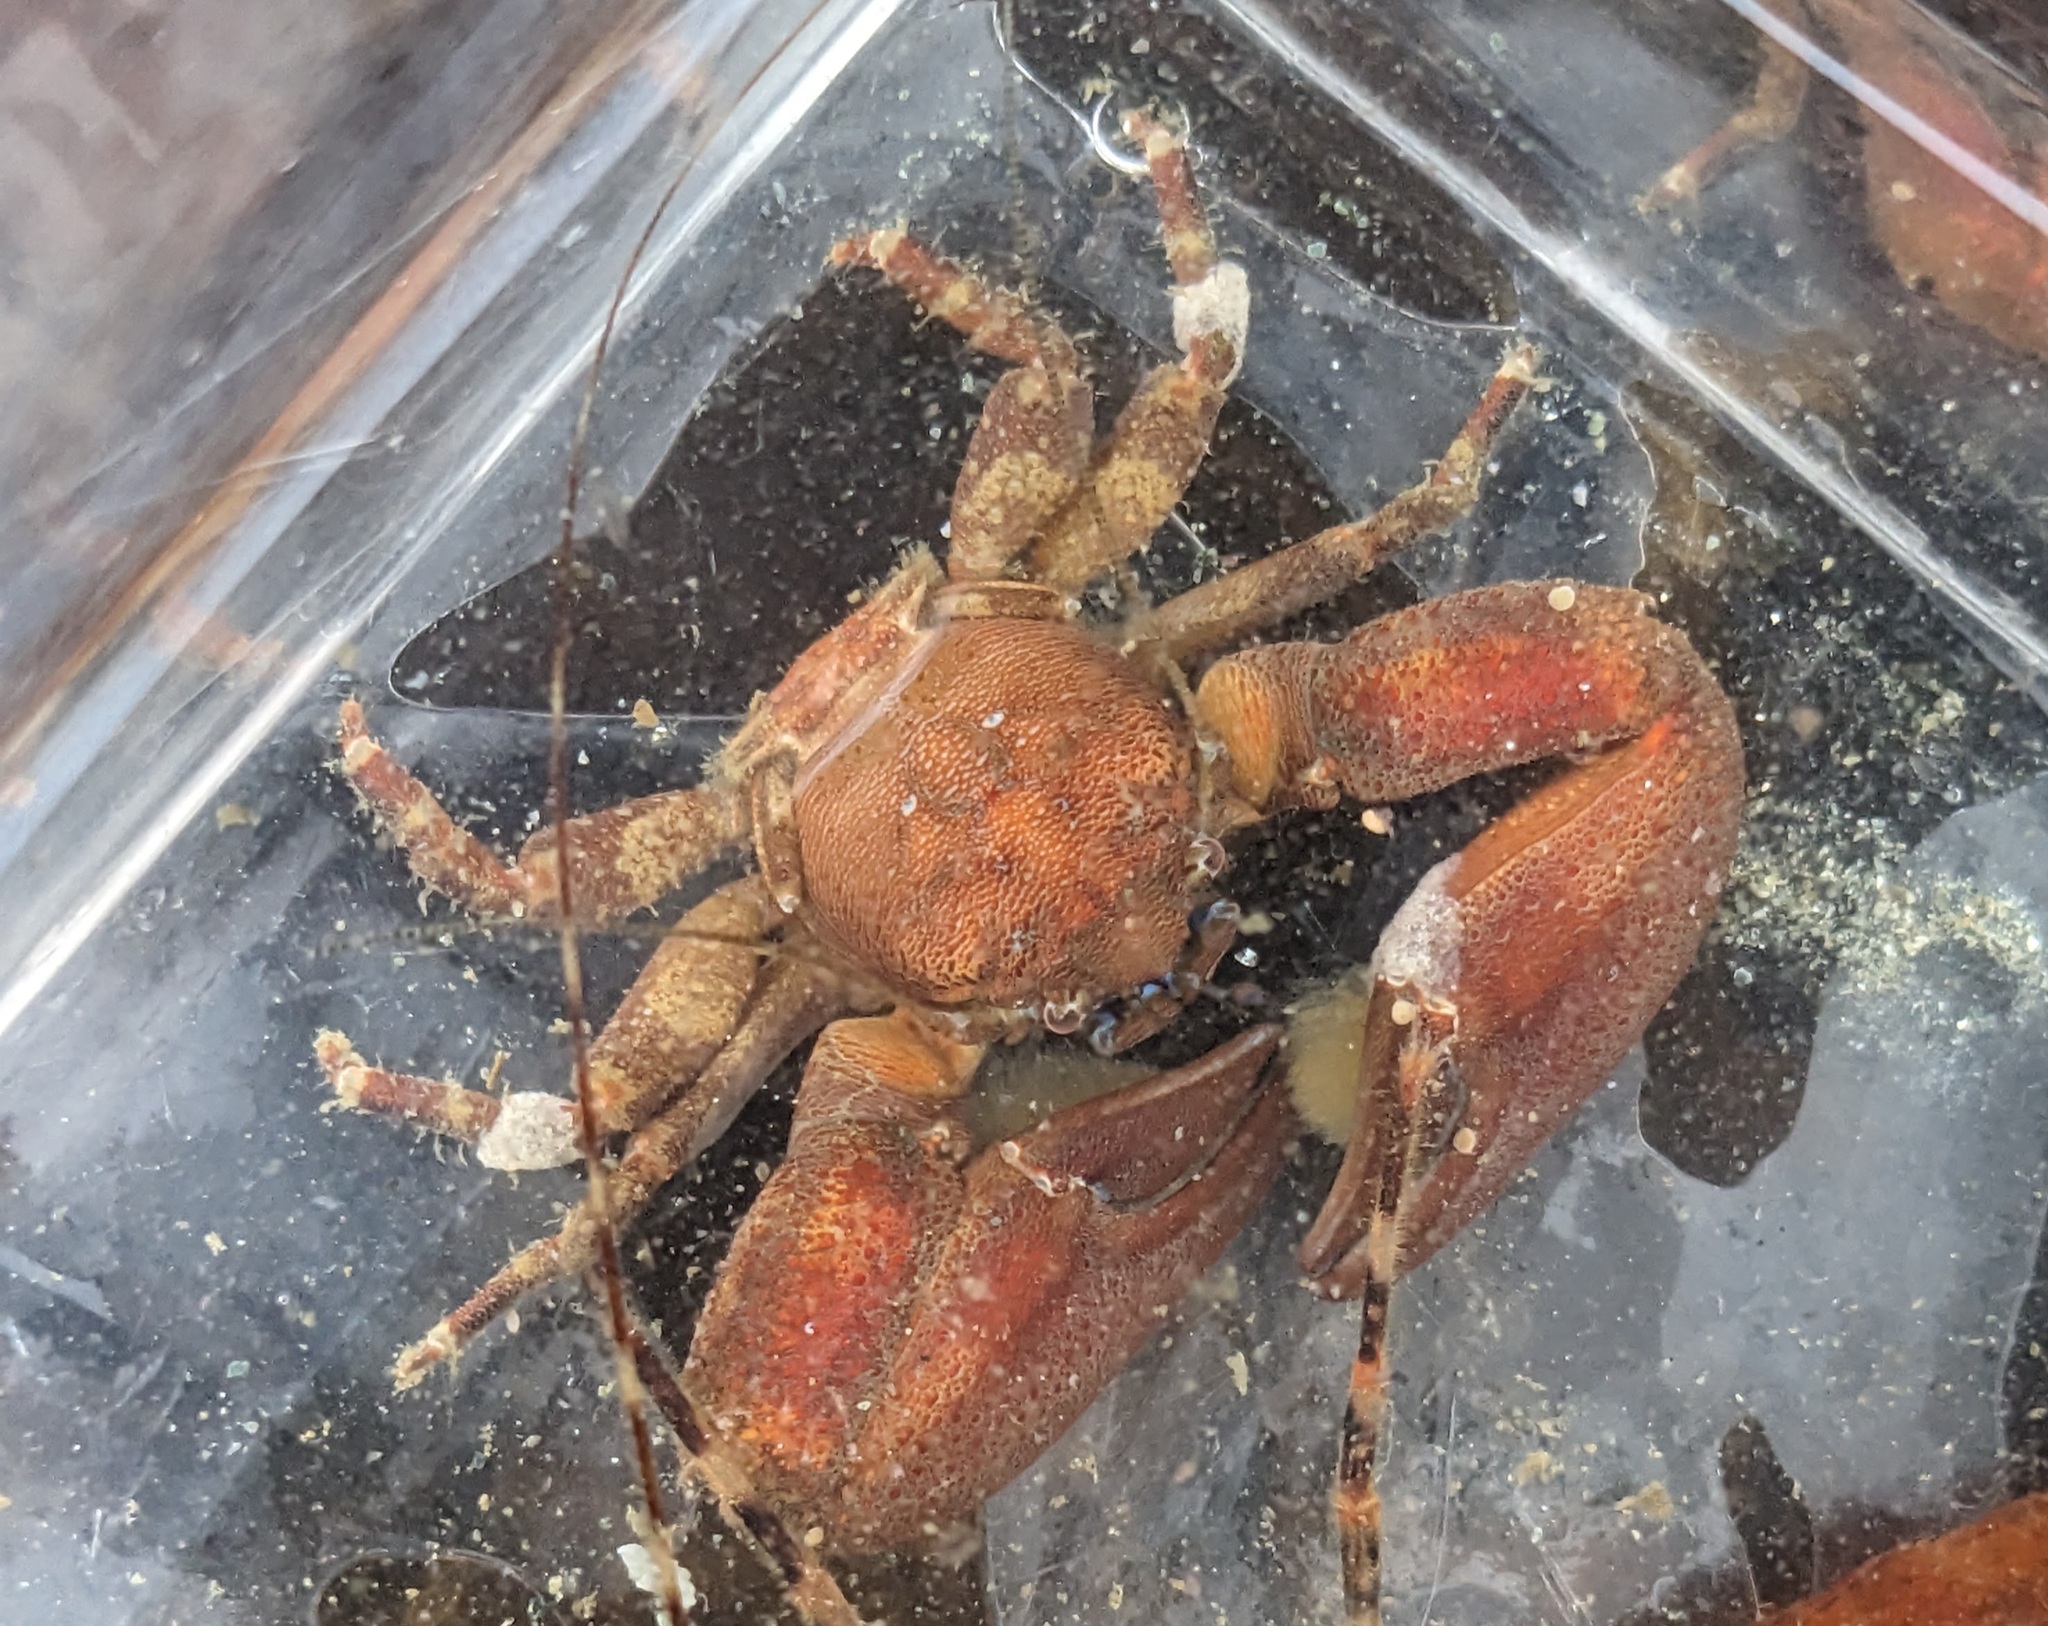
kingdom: Animalia
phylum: Arthropoda
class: Malacostraca
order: Decapoda
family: Porcellanidae
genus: Petrolisthes
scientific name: Petrolisthes eriomerus
